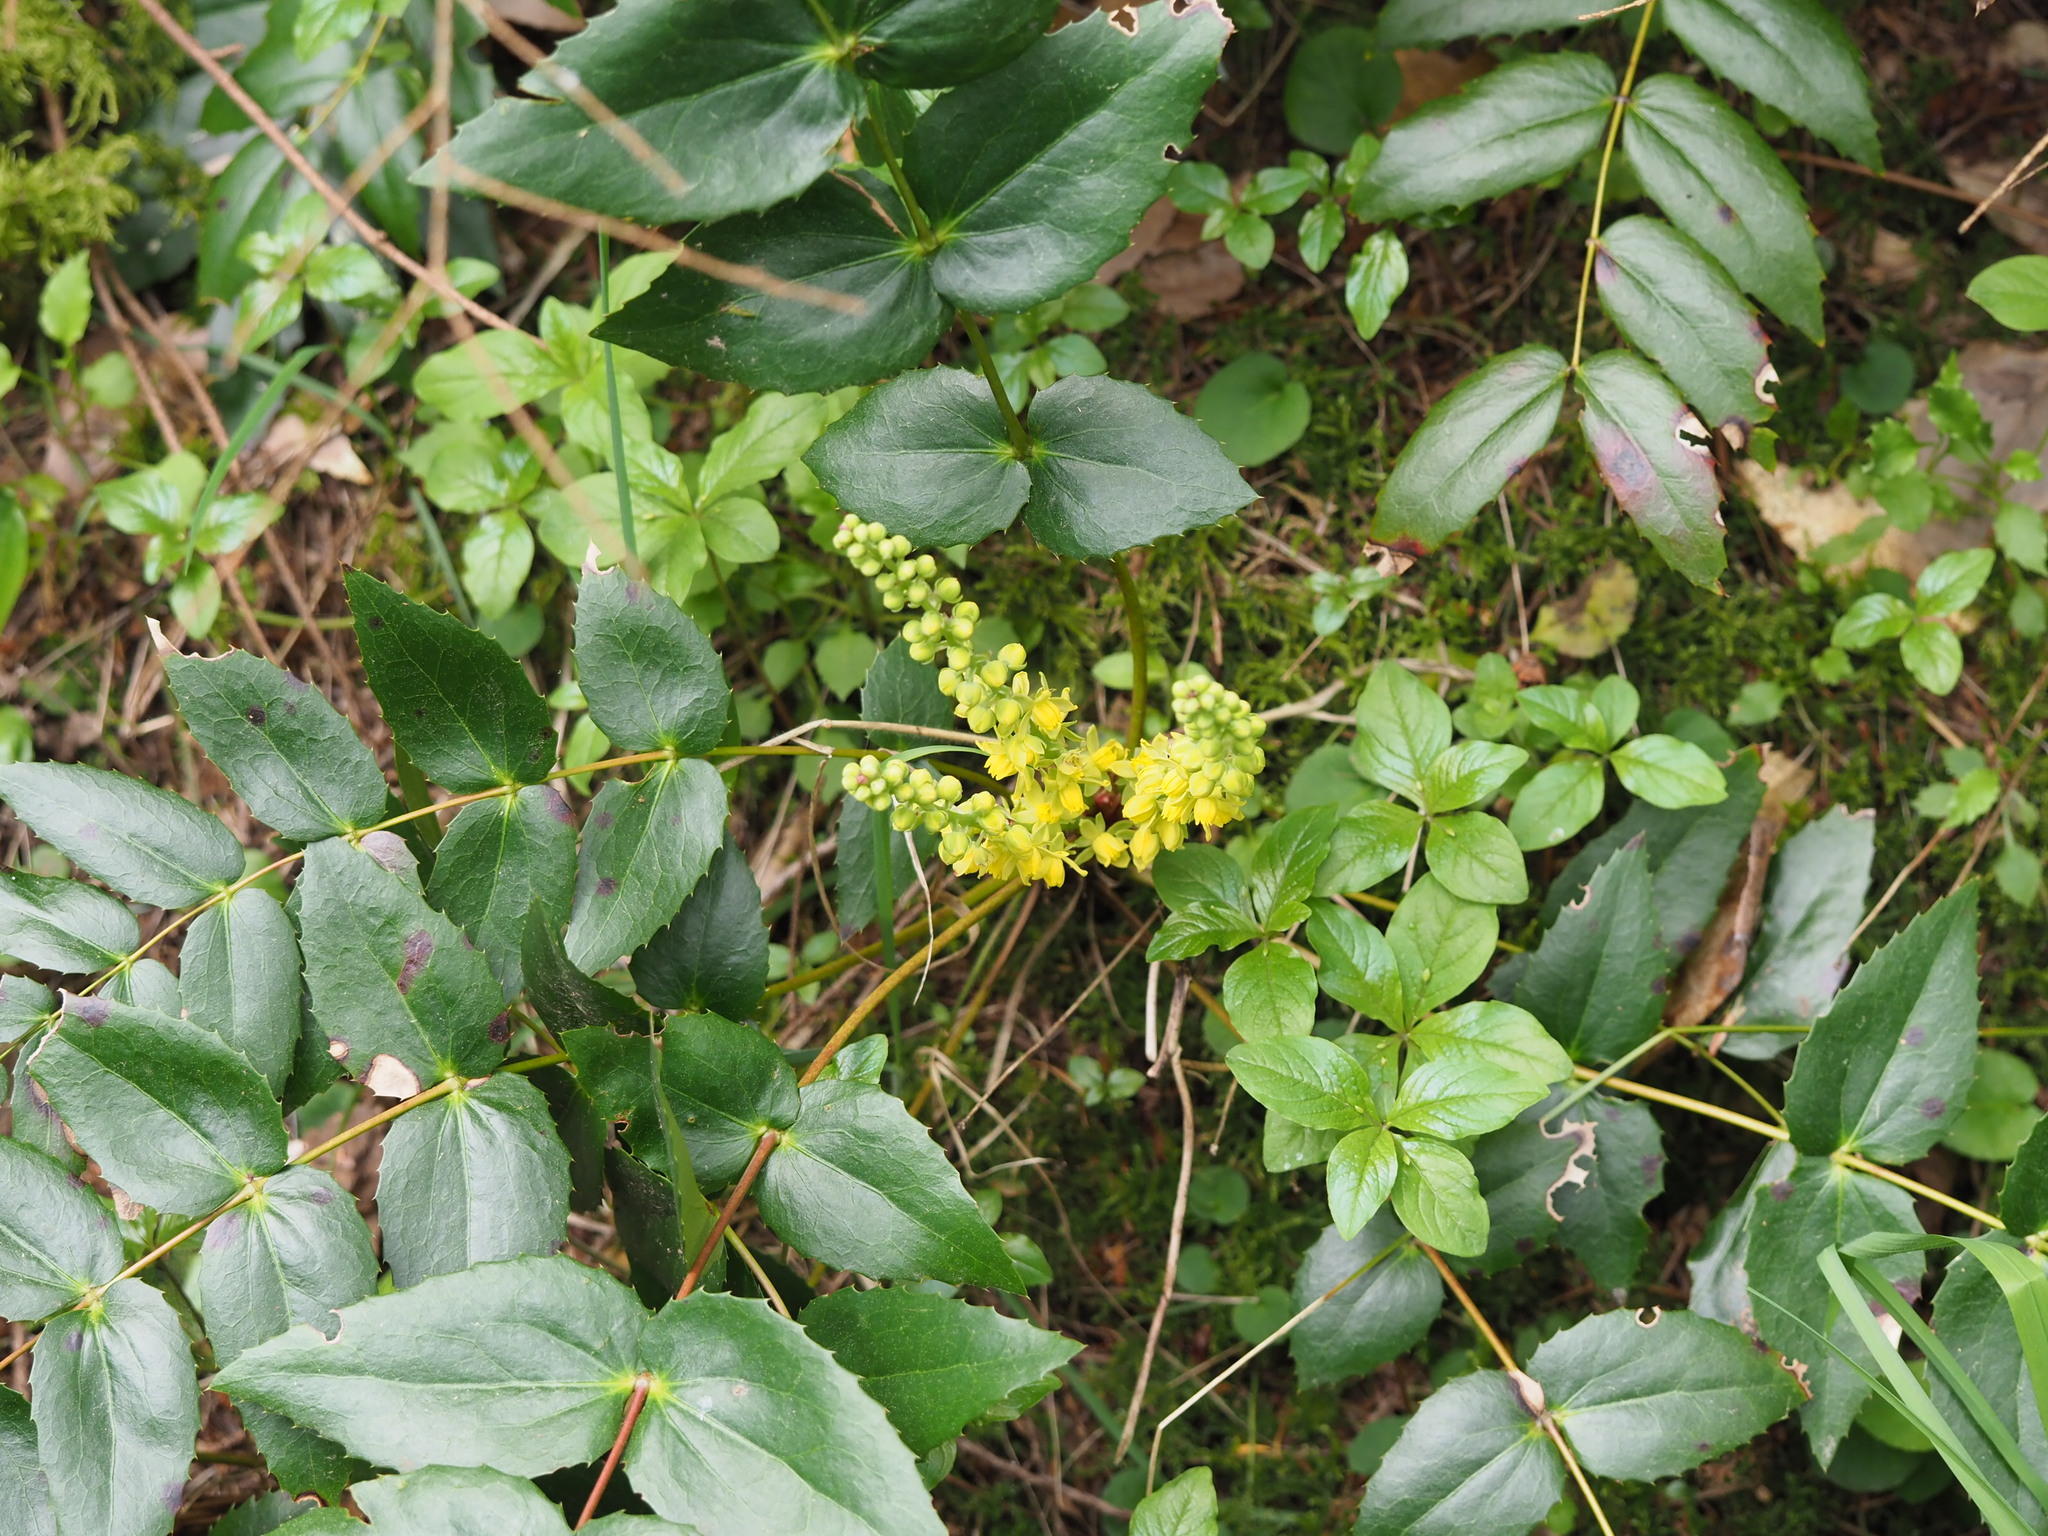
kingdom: Plantae
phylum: Tracheophyta
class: Magnoliopsida
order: Ranunculales
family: Berberidaceae
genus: Mahonia
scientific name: Mahonia nervosa
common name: Cascade oregon-grape
